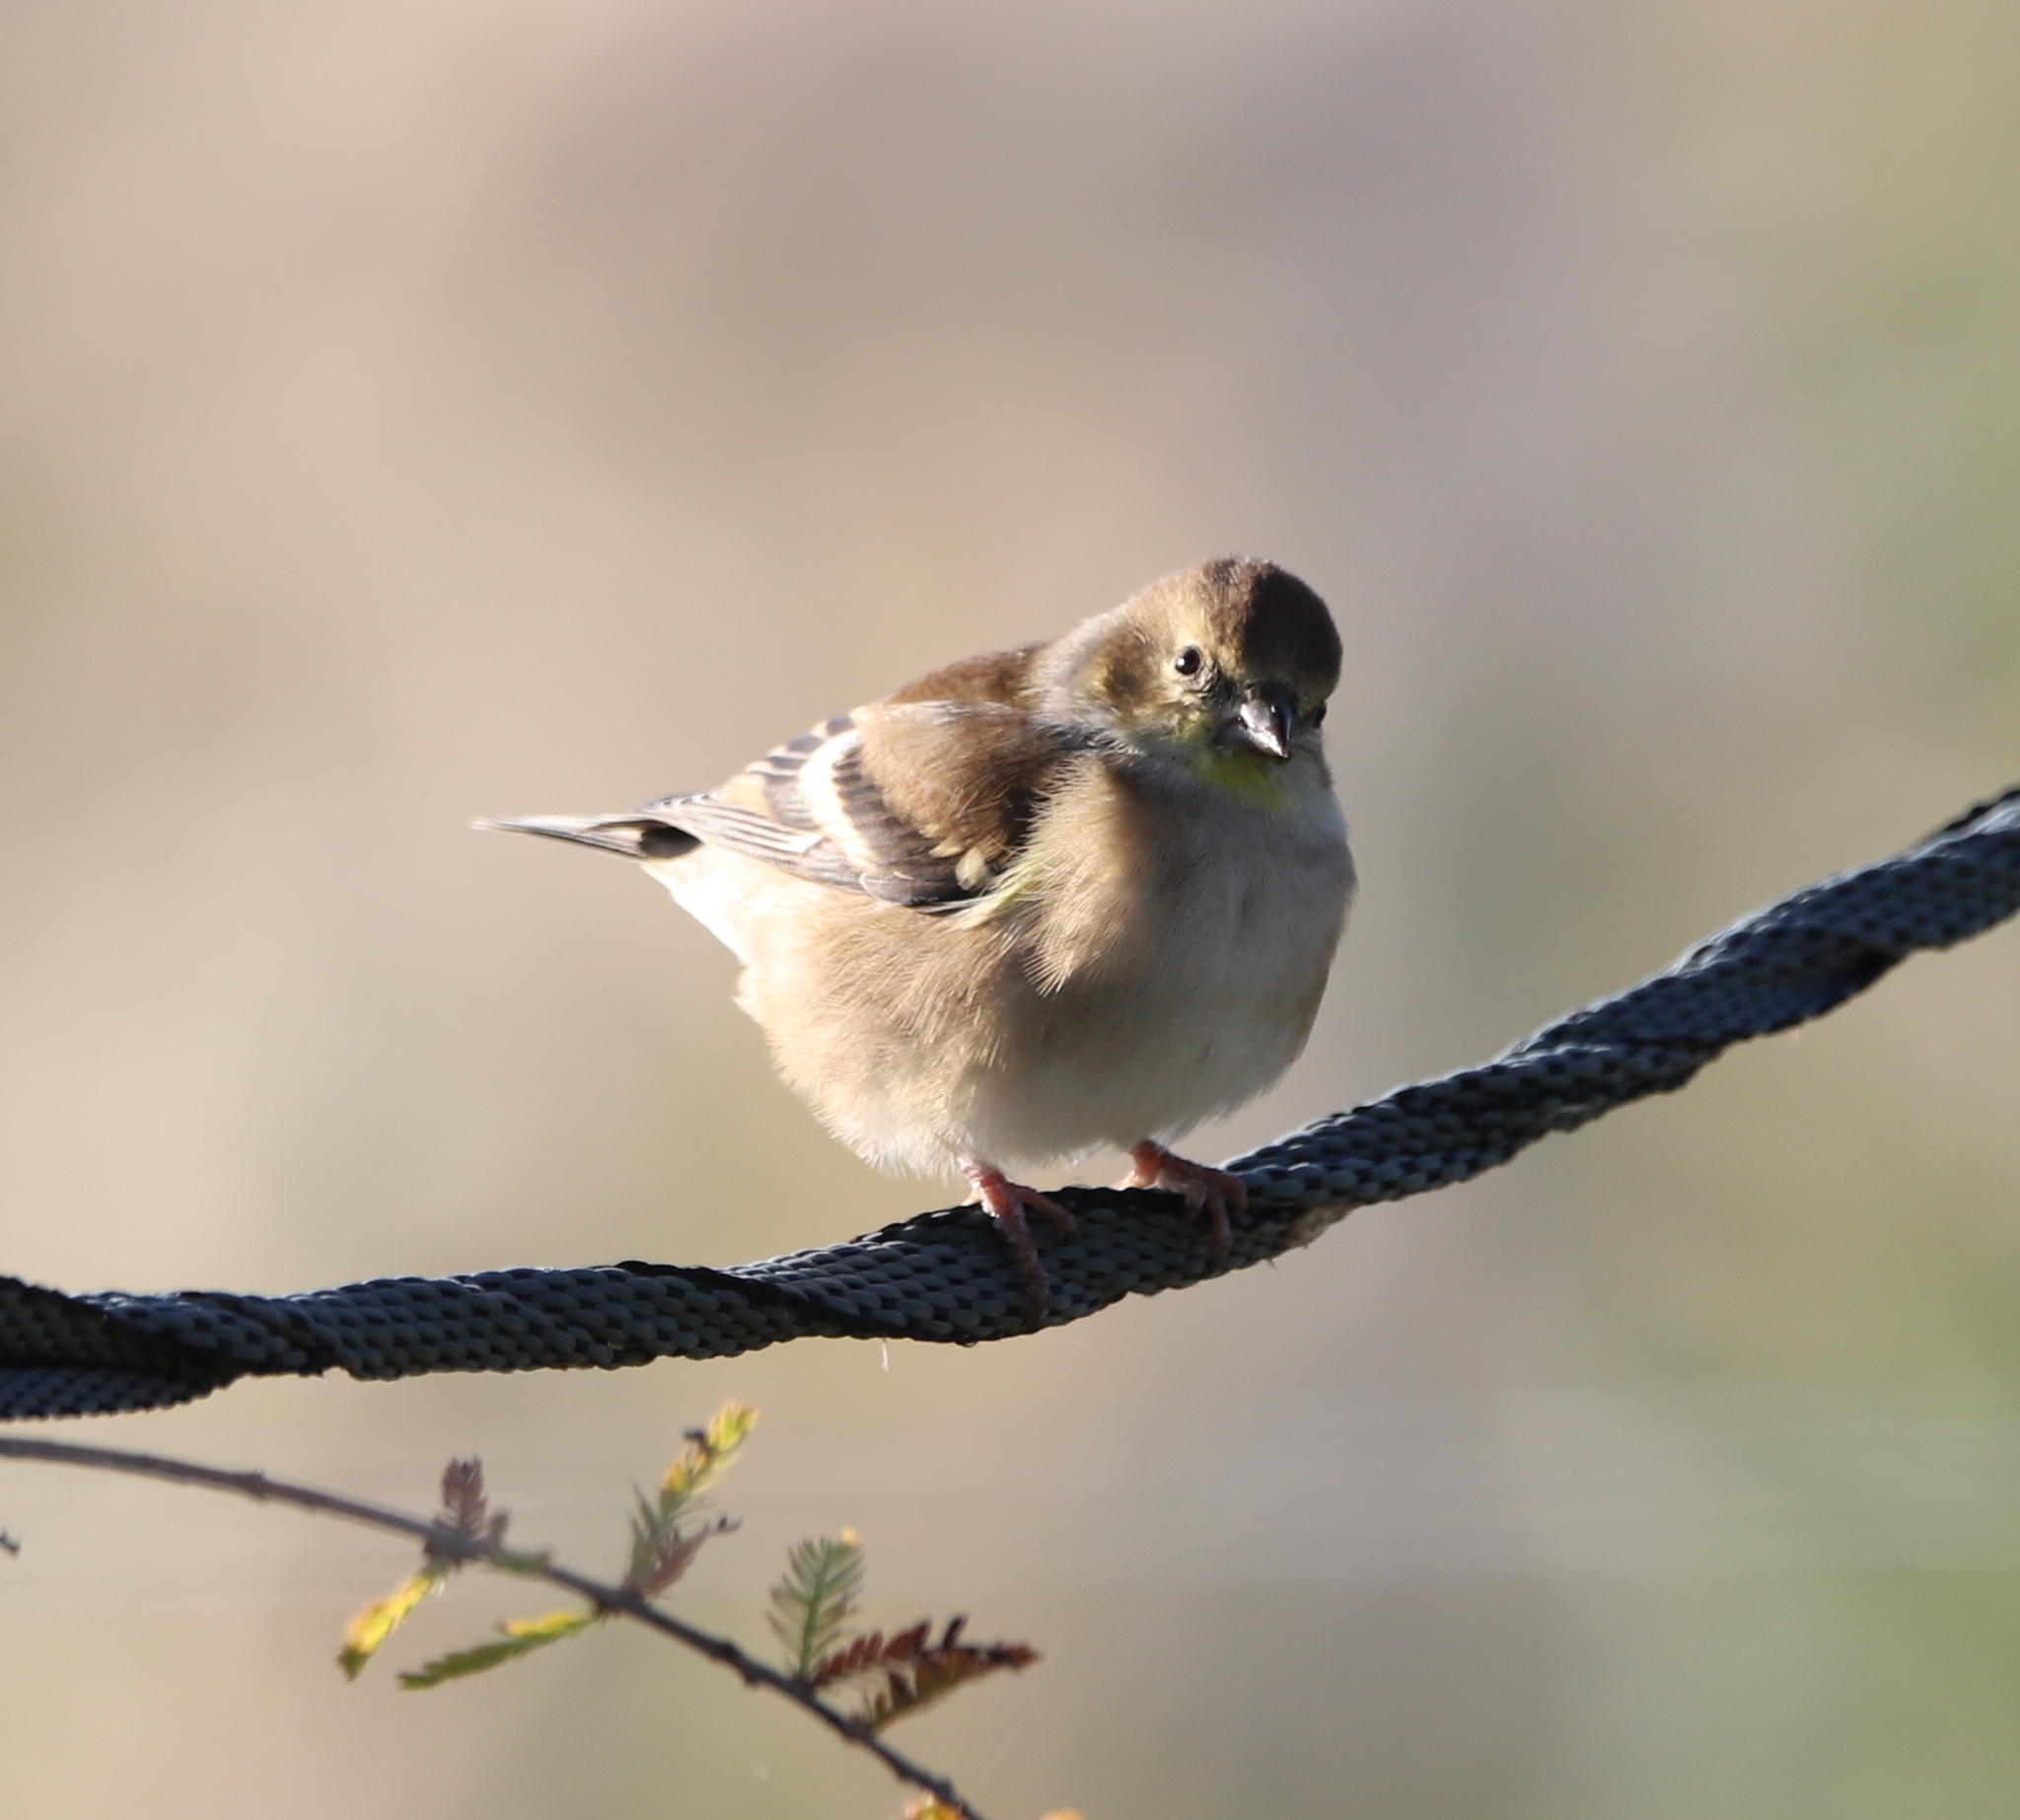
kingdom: Animalia
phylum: Chordata
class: Aves
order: Passeriformes
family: Fringillidae
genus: Spinus
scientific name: Spinus tristis
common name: American goldfinch
